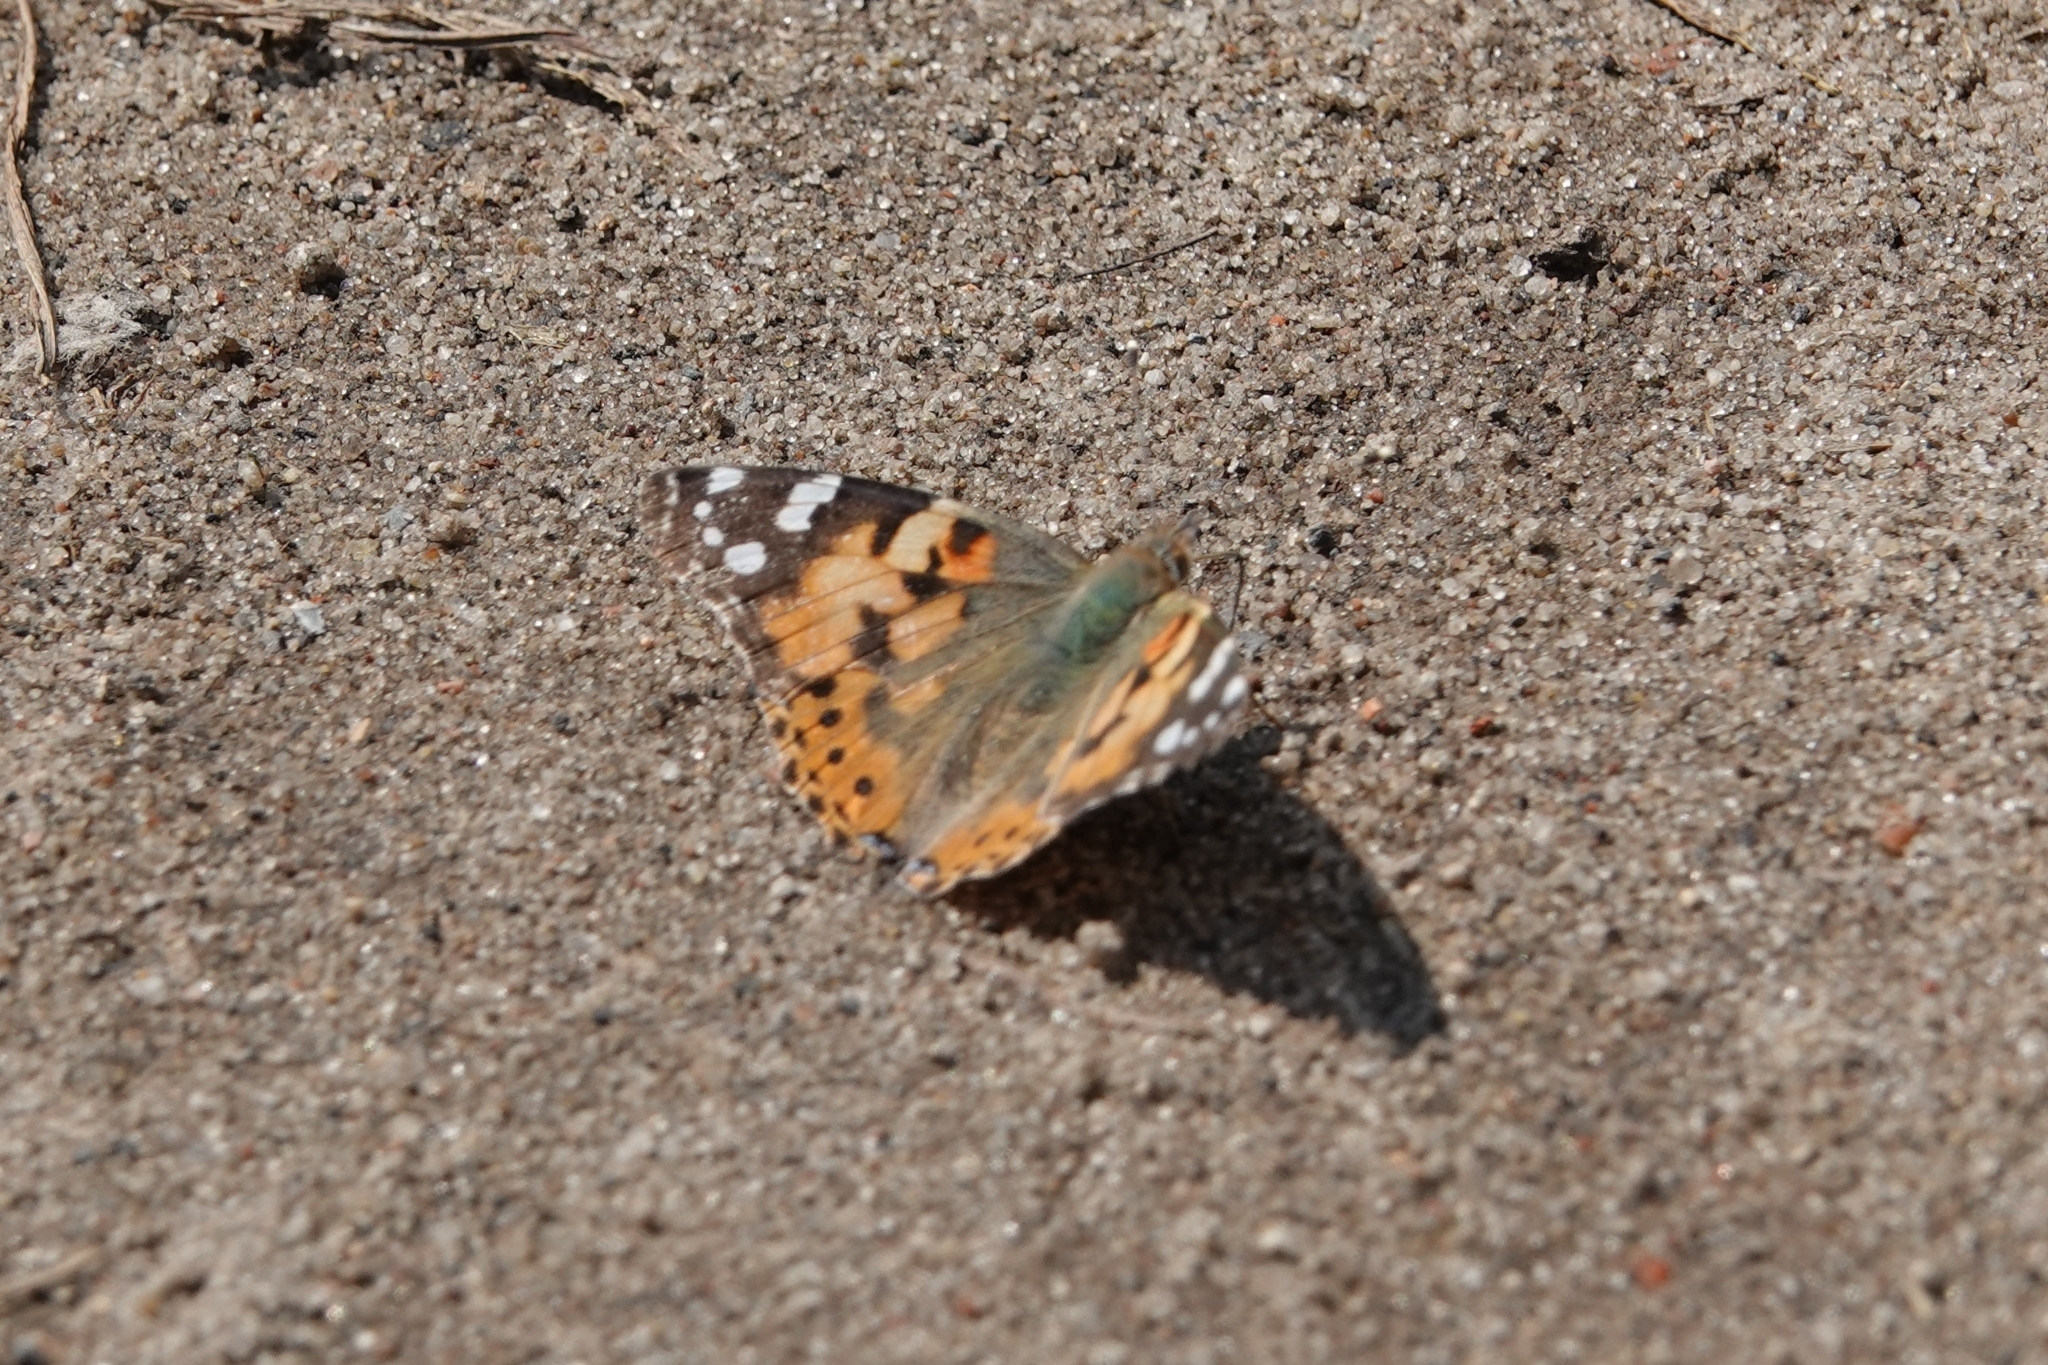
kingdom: Animalia
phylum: Arthropoda
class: Insecta
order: Lepidoptera
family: Nymphalidae
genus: Vanessa
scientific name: Vanessa cardui
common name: Painted lady
